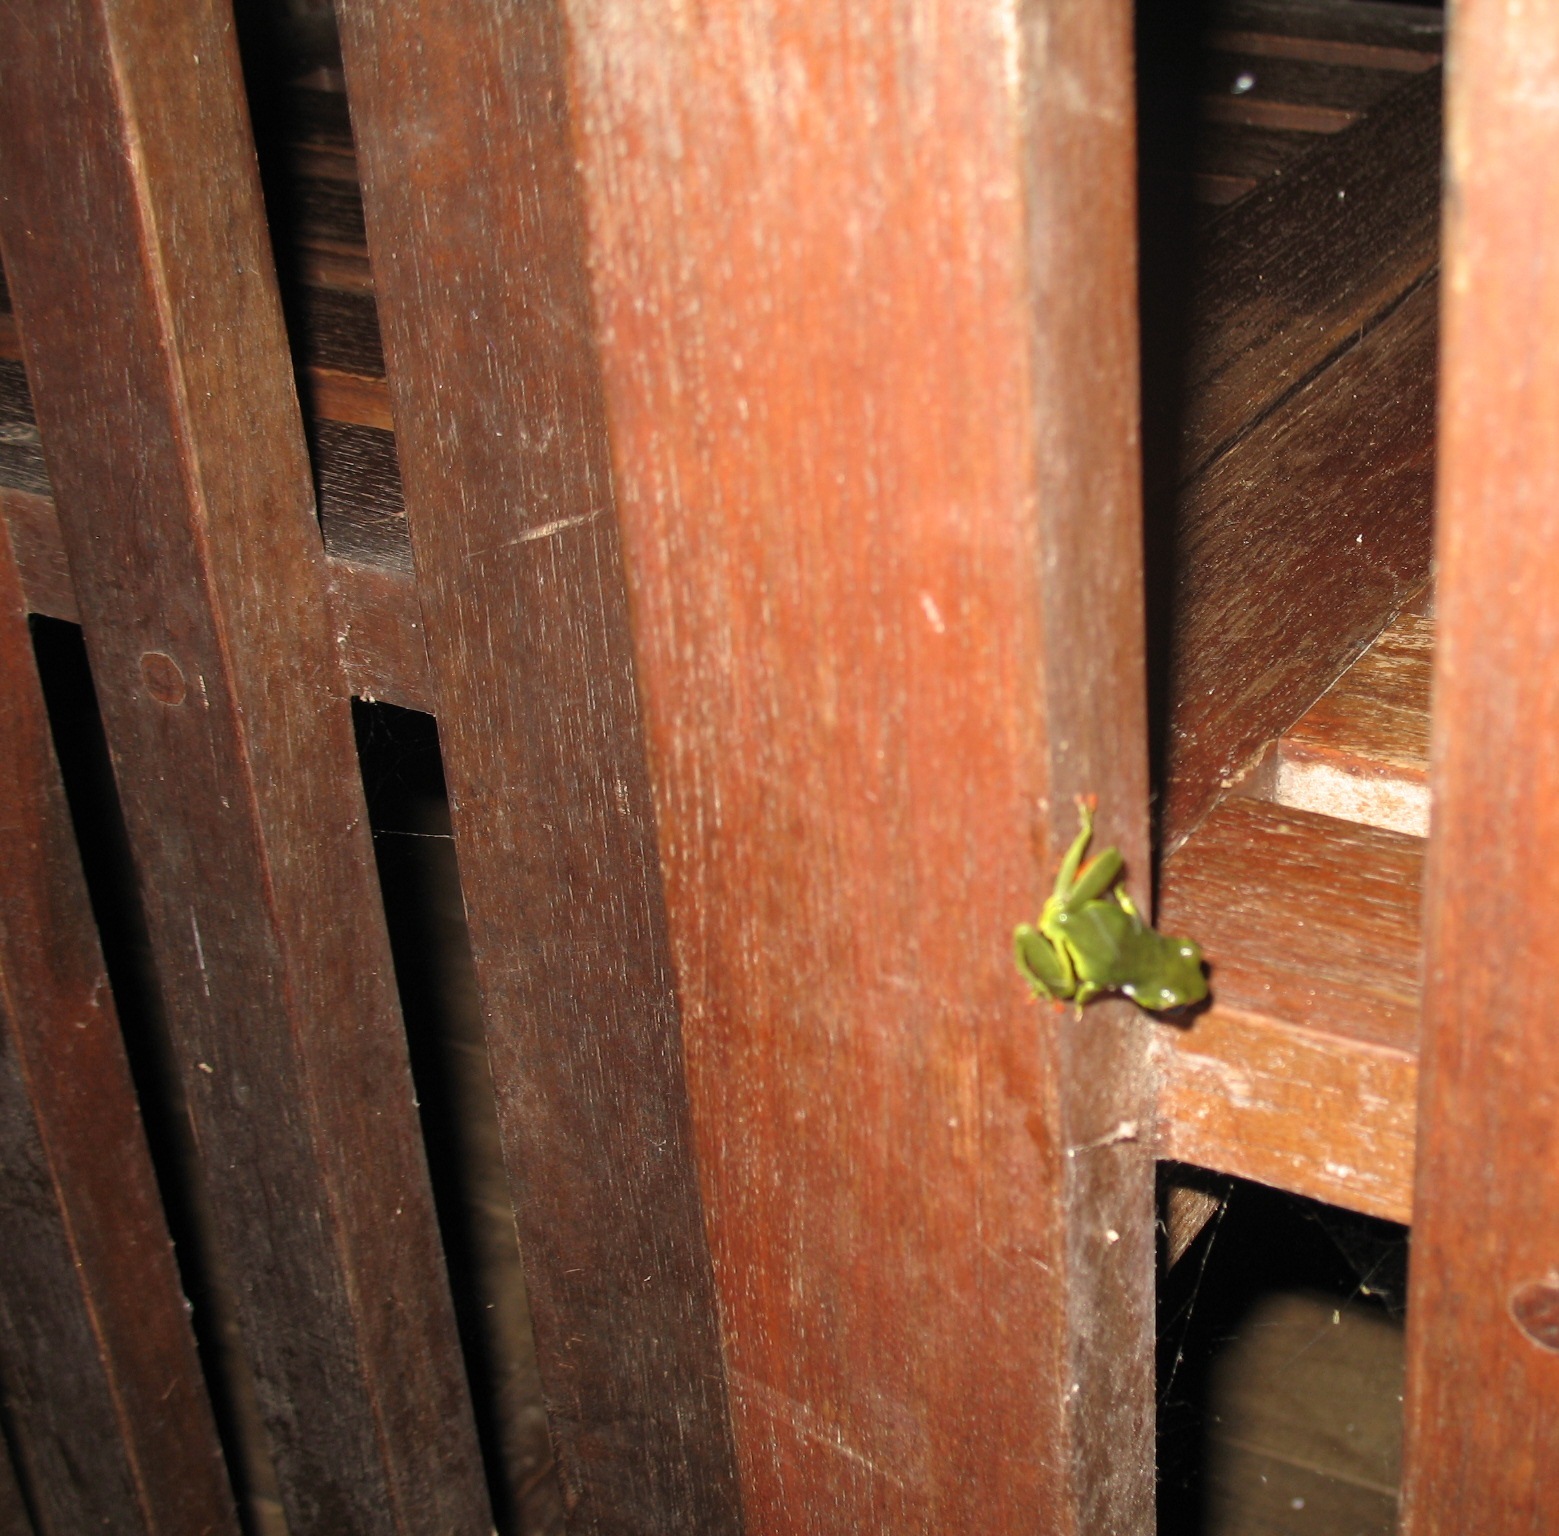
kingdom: Animalia
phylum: Chordata
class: Amphibia
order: Anura
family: Hyperoliidae
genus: Hyperolius
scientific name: Hyperolius olivaceus
